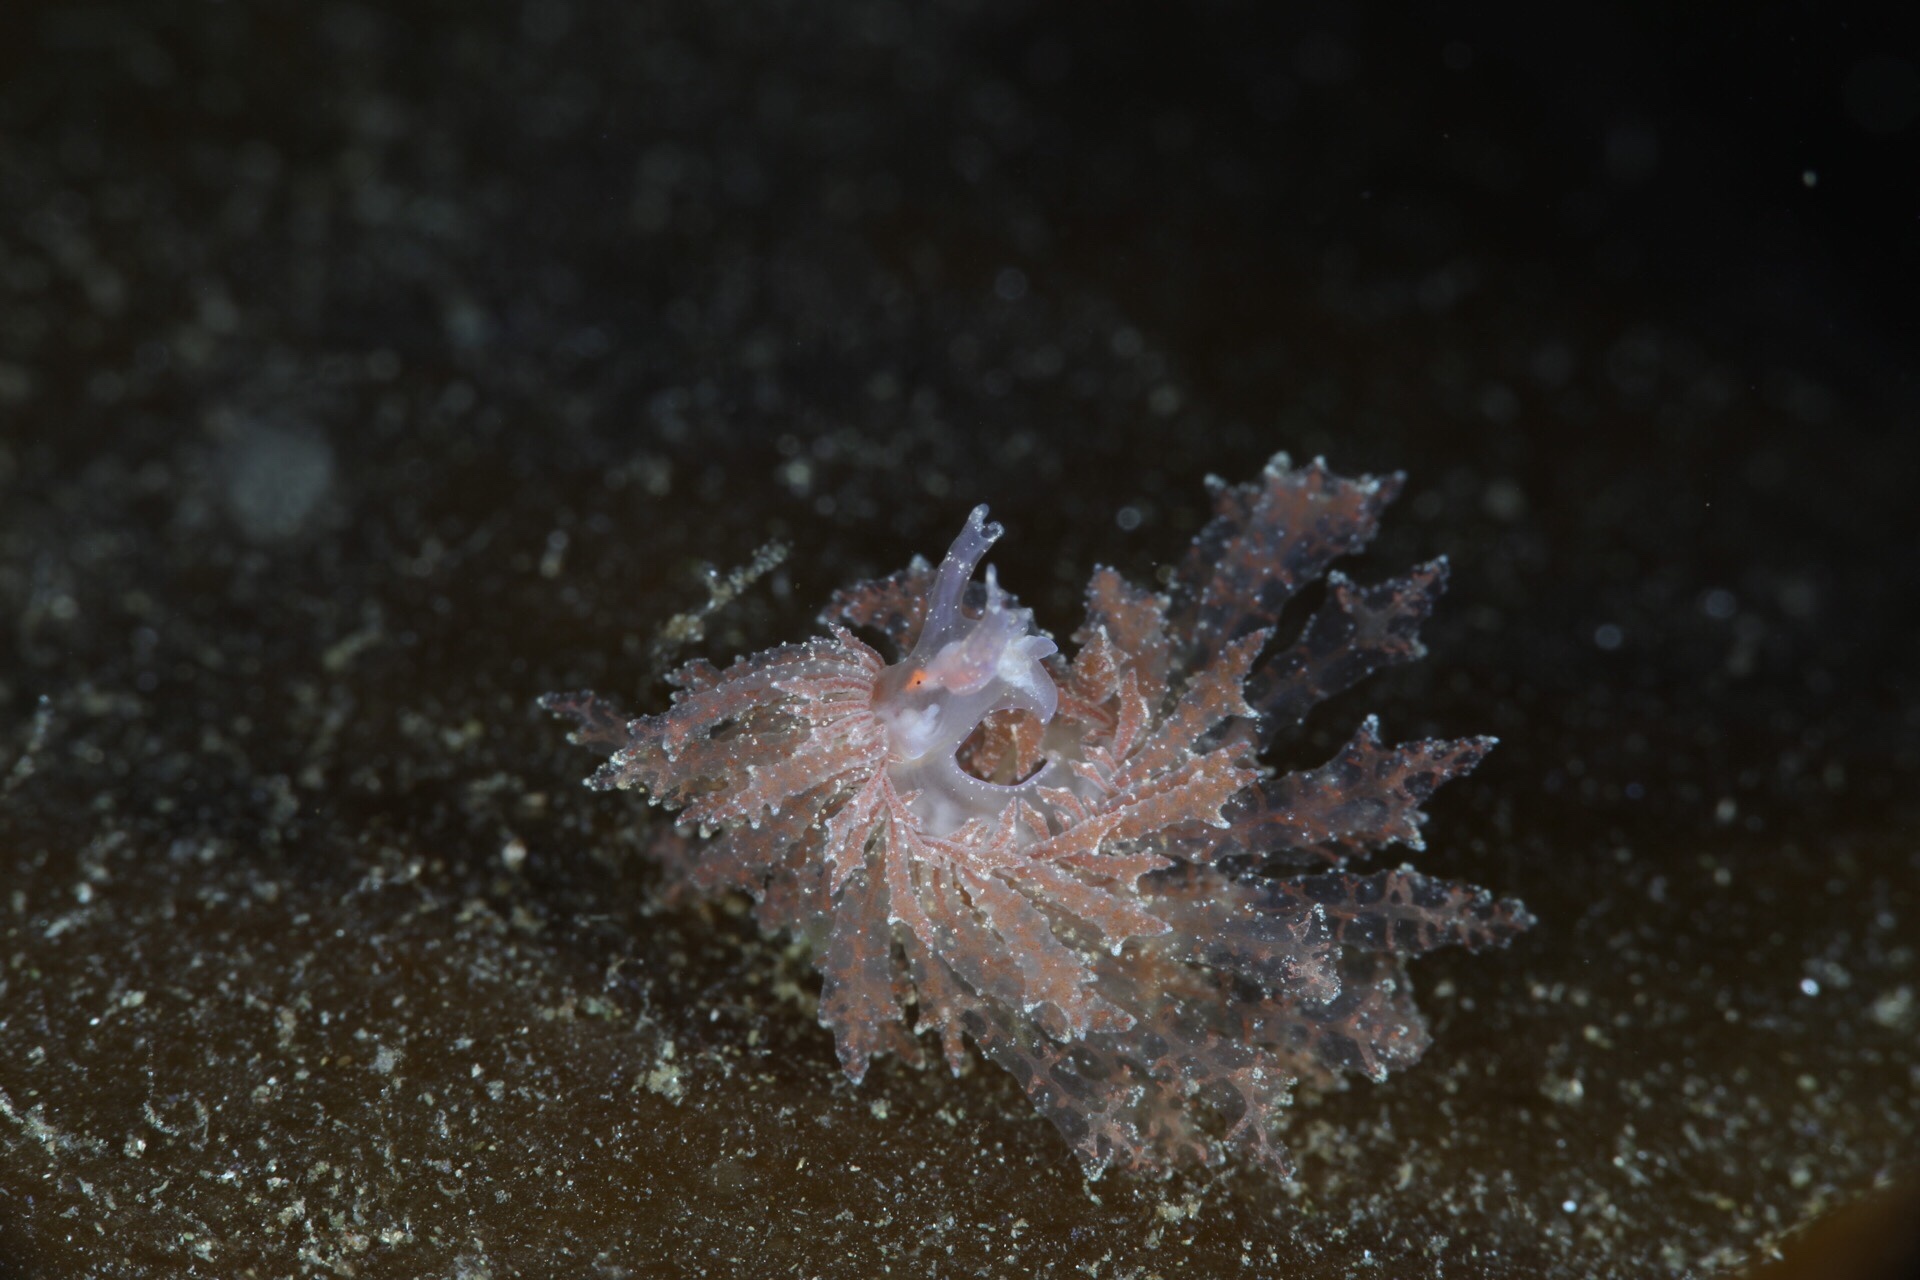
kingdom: Animalia
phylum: Mollusca
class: Gastropoda
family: Hermaeidae
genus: Hermaea
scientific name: Hermaea bifida
